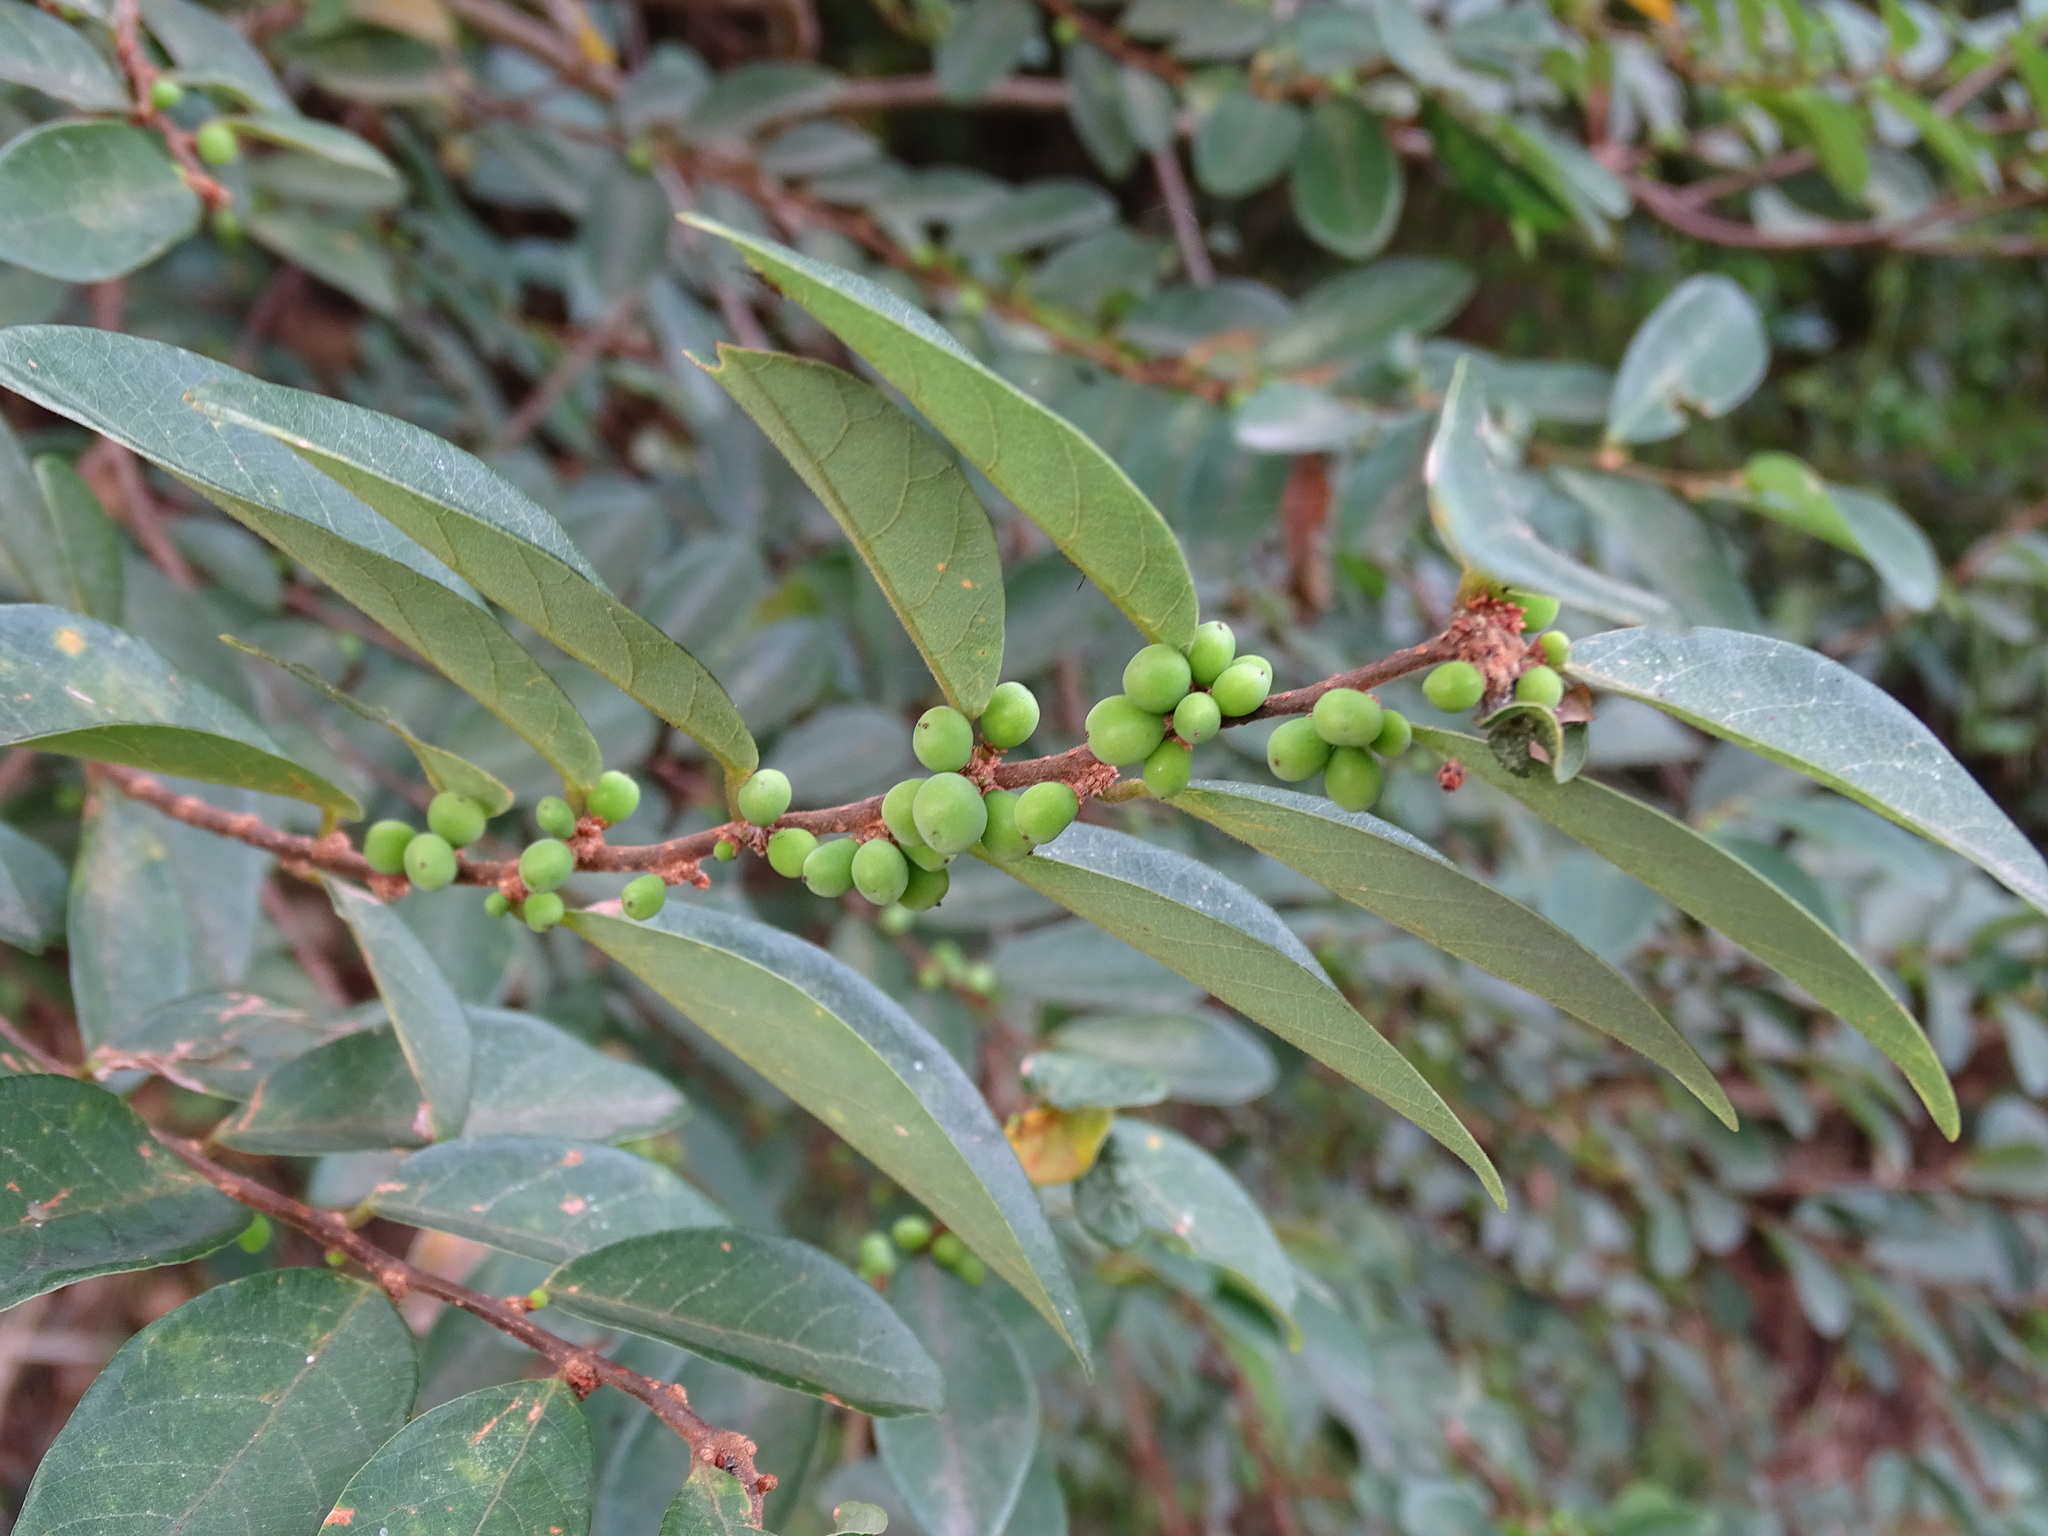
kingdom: Plantae
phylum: Tracheophyta
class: Magnoliopsida
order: Malpighiales
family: Phyllanthaceae
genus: Bridelia
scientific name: Bridelia tomentosa
